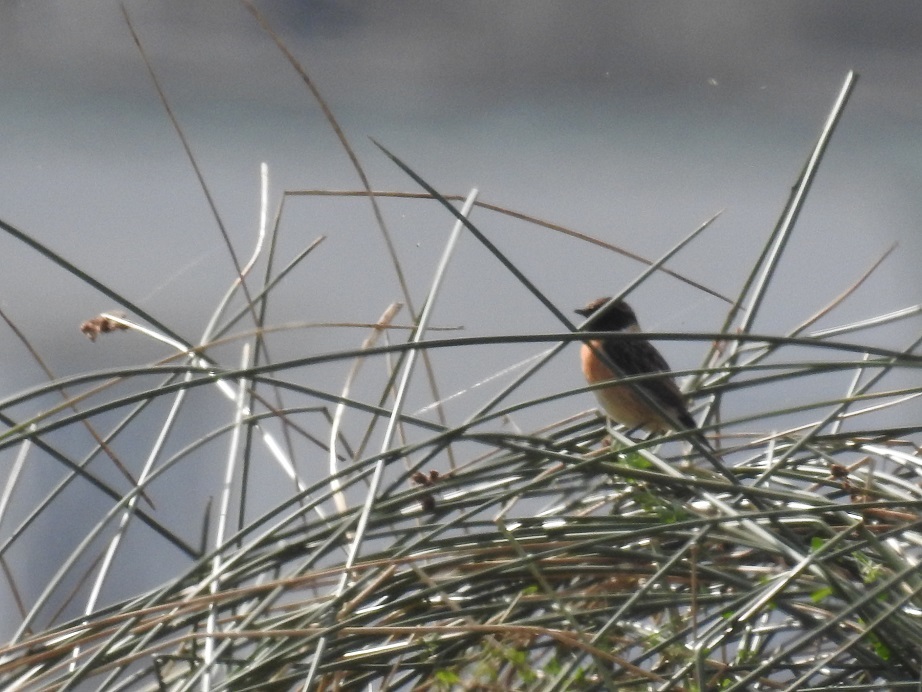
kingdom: Animalia
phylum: Chordata
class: Aves
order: Passeriformes
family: Muscicapidae
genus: Saxicola
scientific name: Saxicola rubicola
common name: European stonechat
